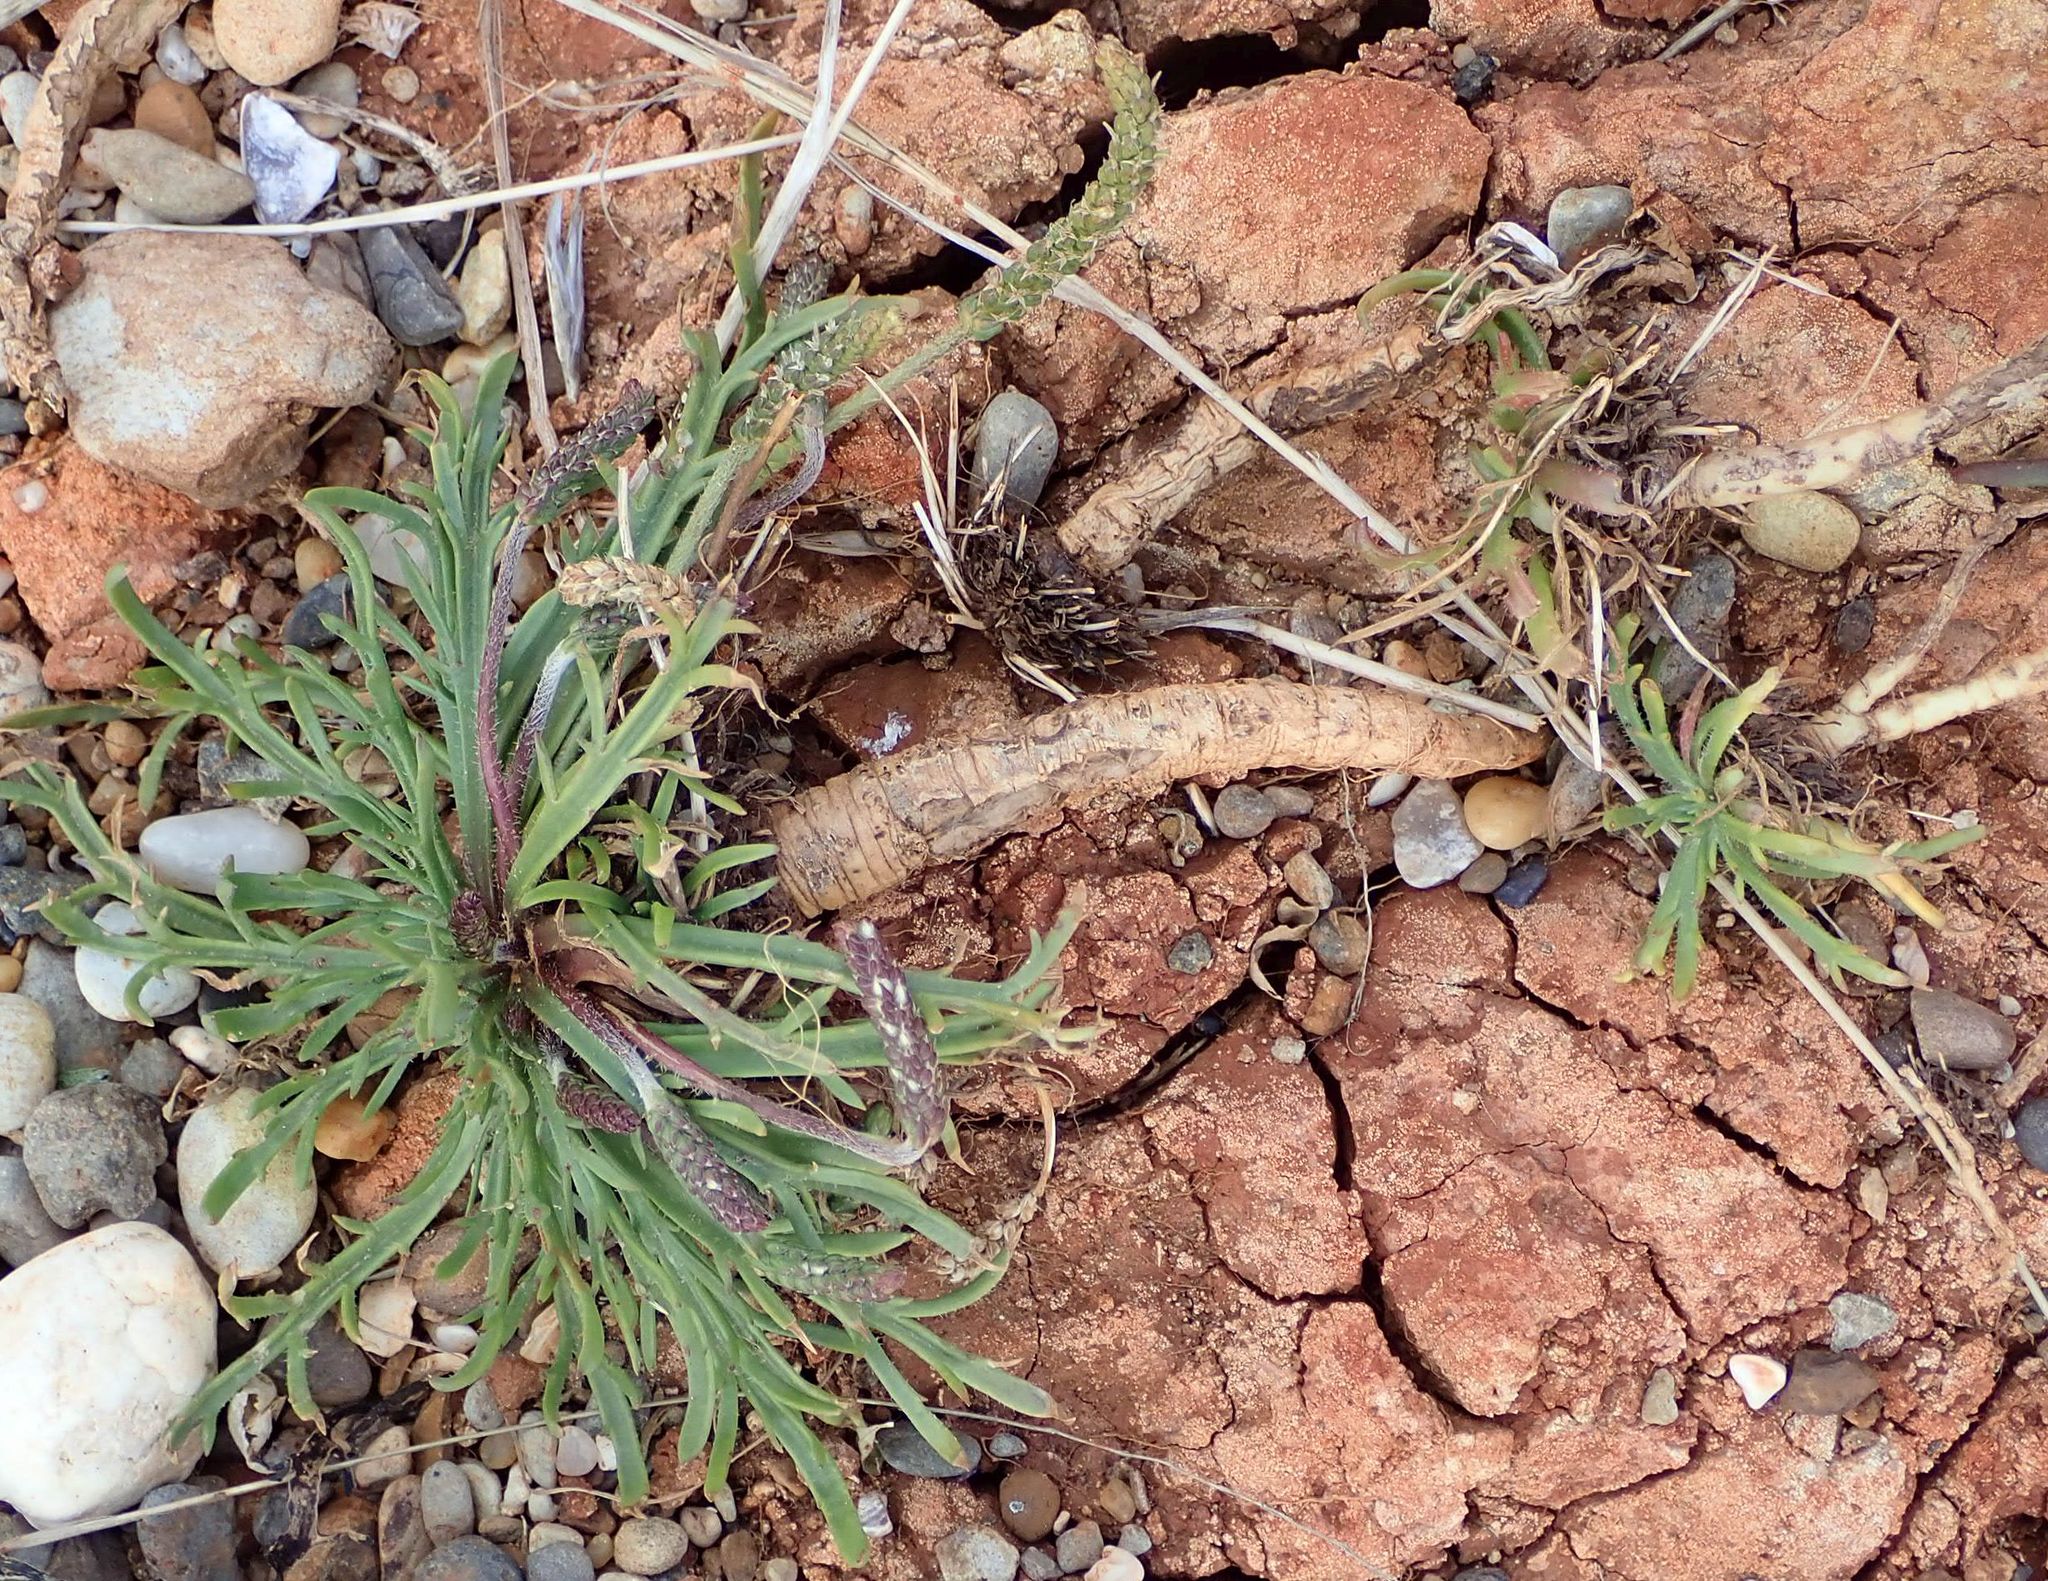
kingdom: Plantae
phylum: Tracheophyta
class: Magnoliopsida
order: Lamiales
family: Plantaginaceae
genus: Plantago
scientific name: Plantago coronopus
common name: Buck's-horn plantain
